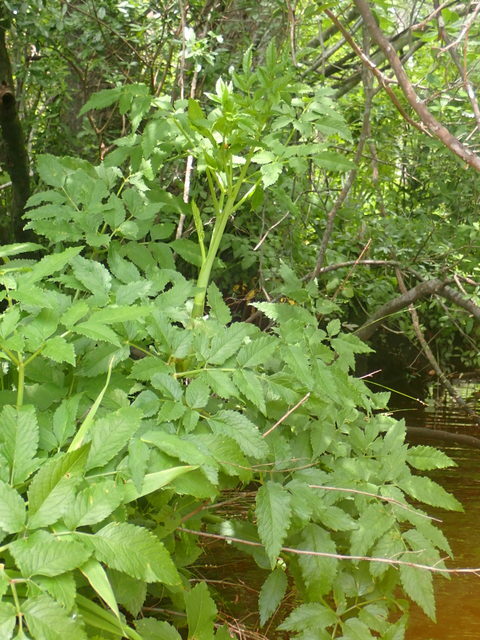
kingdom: Plantae
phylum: Tracheophyta
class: Magnoliopsida
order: Apiales
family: Apiaceae
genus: Cicuta
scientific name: Cicuta maculata
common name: Spotted cowbane
